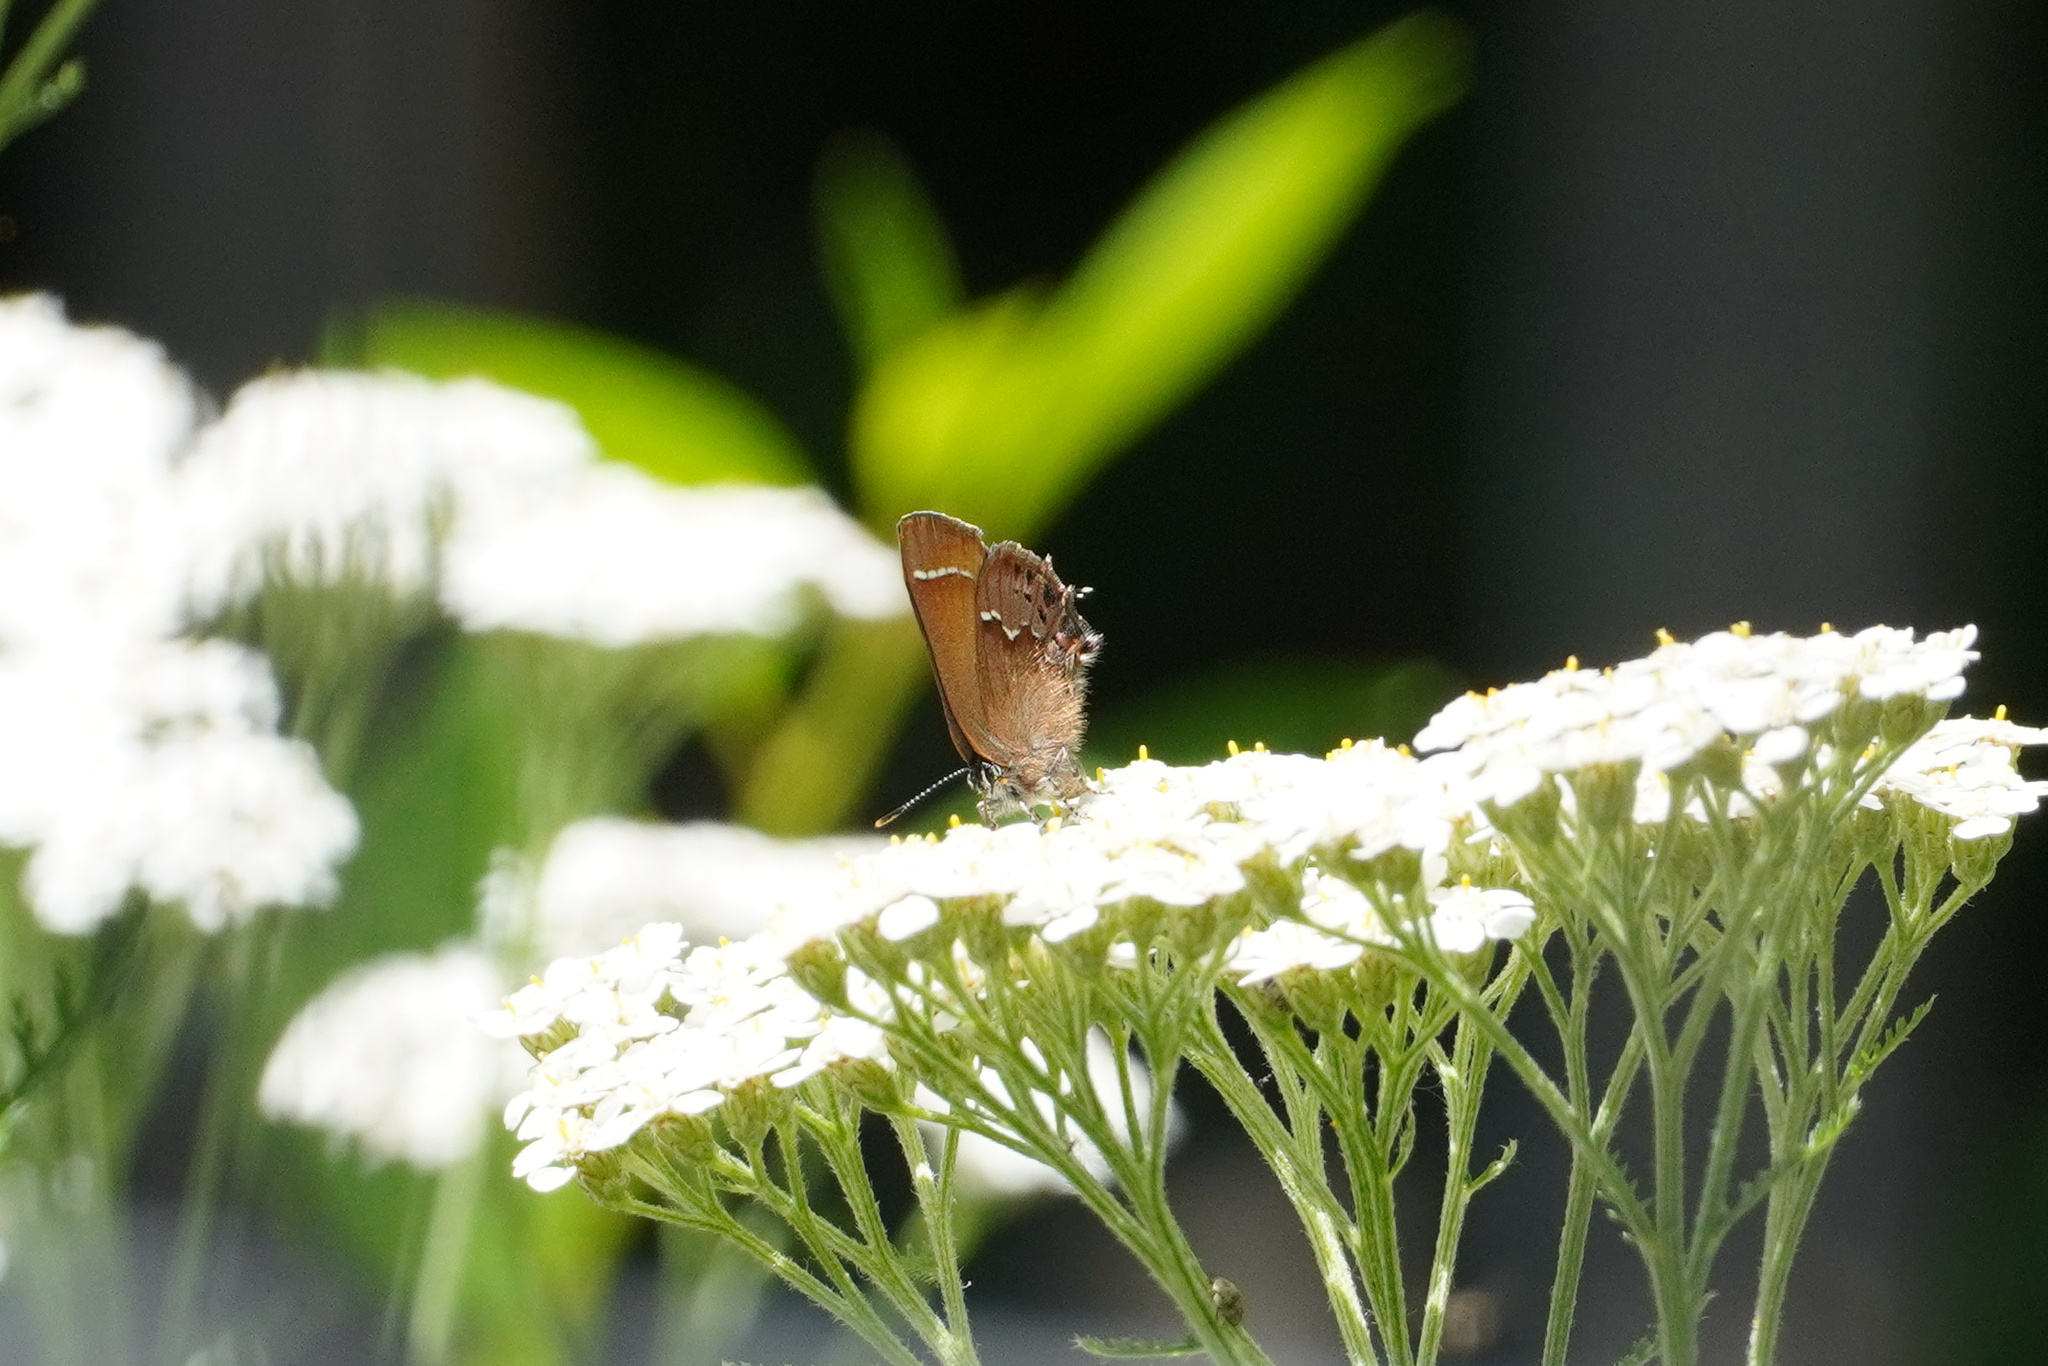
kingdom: Animalia
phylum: Arthropoda
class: Insecta
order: Lepidoptera
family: Lycaenidae
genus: Mitoura
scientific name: Mitoura gryneus
